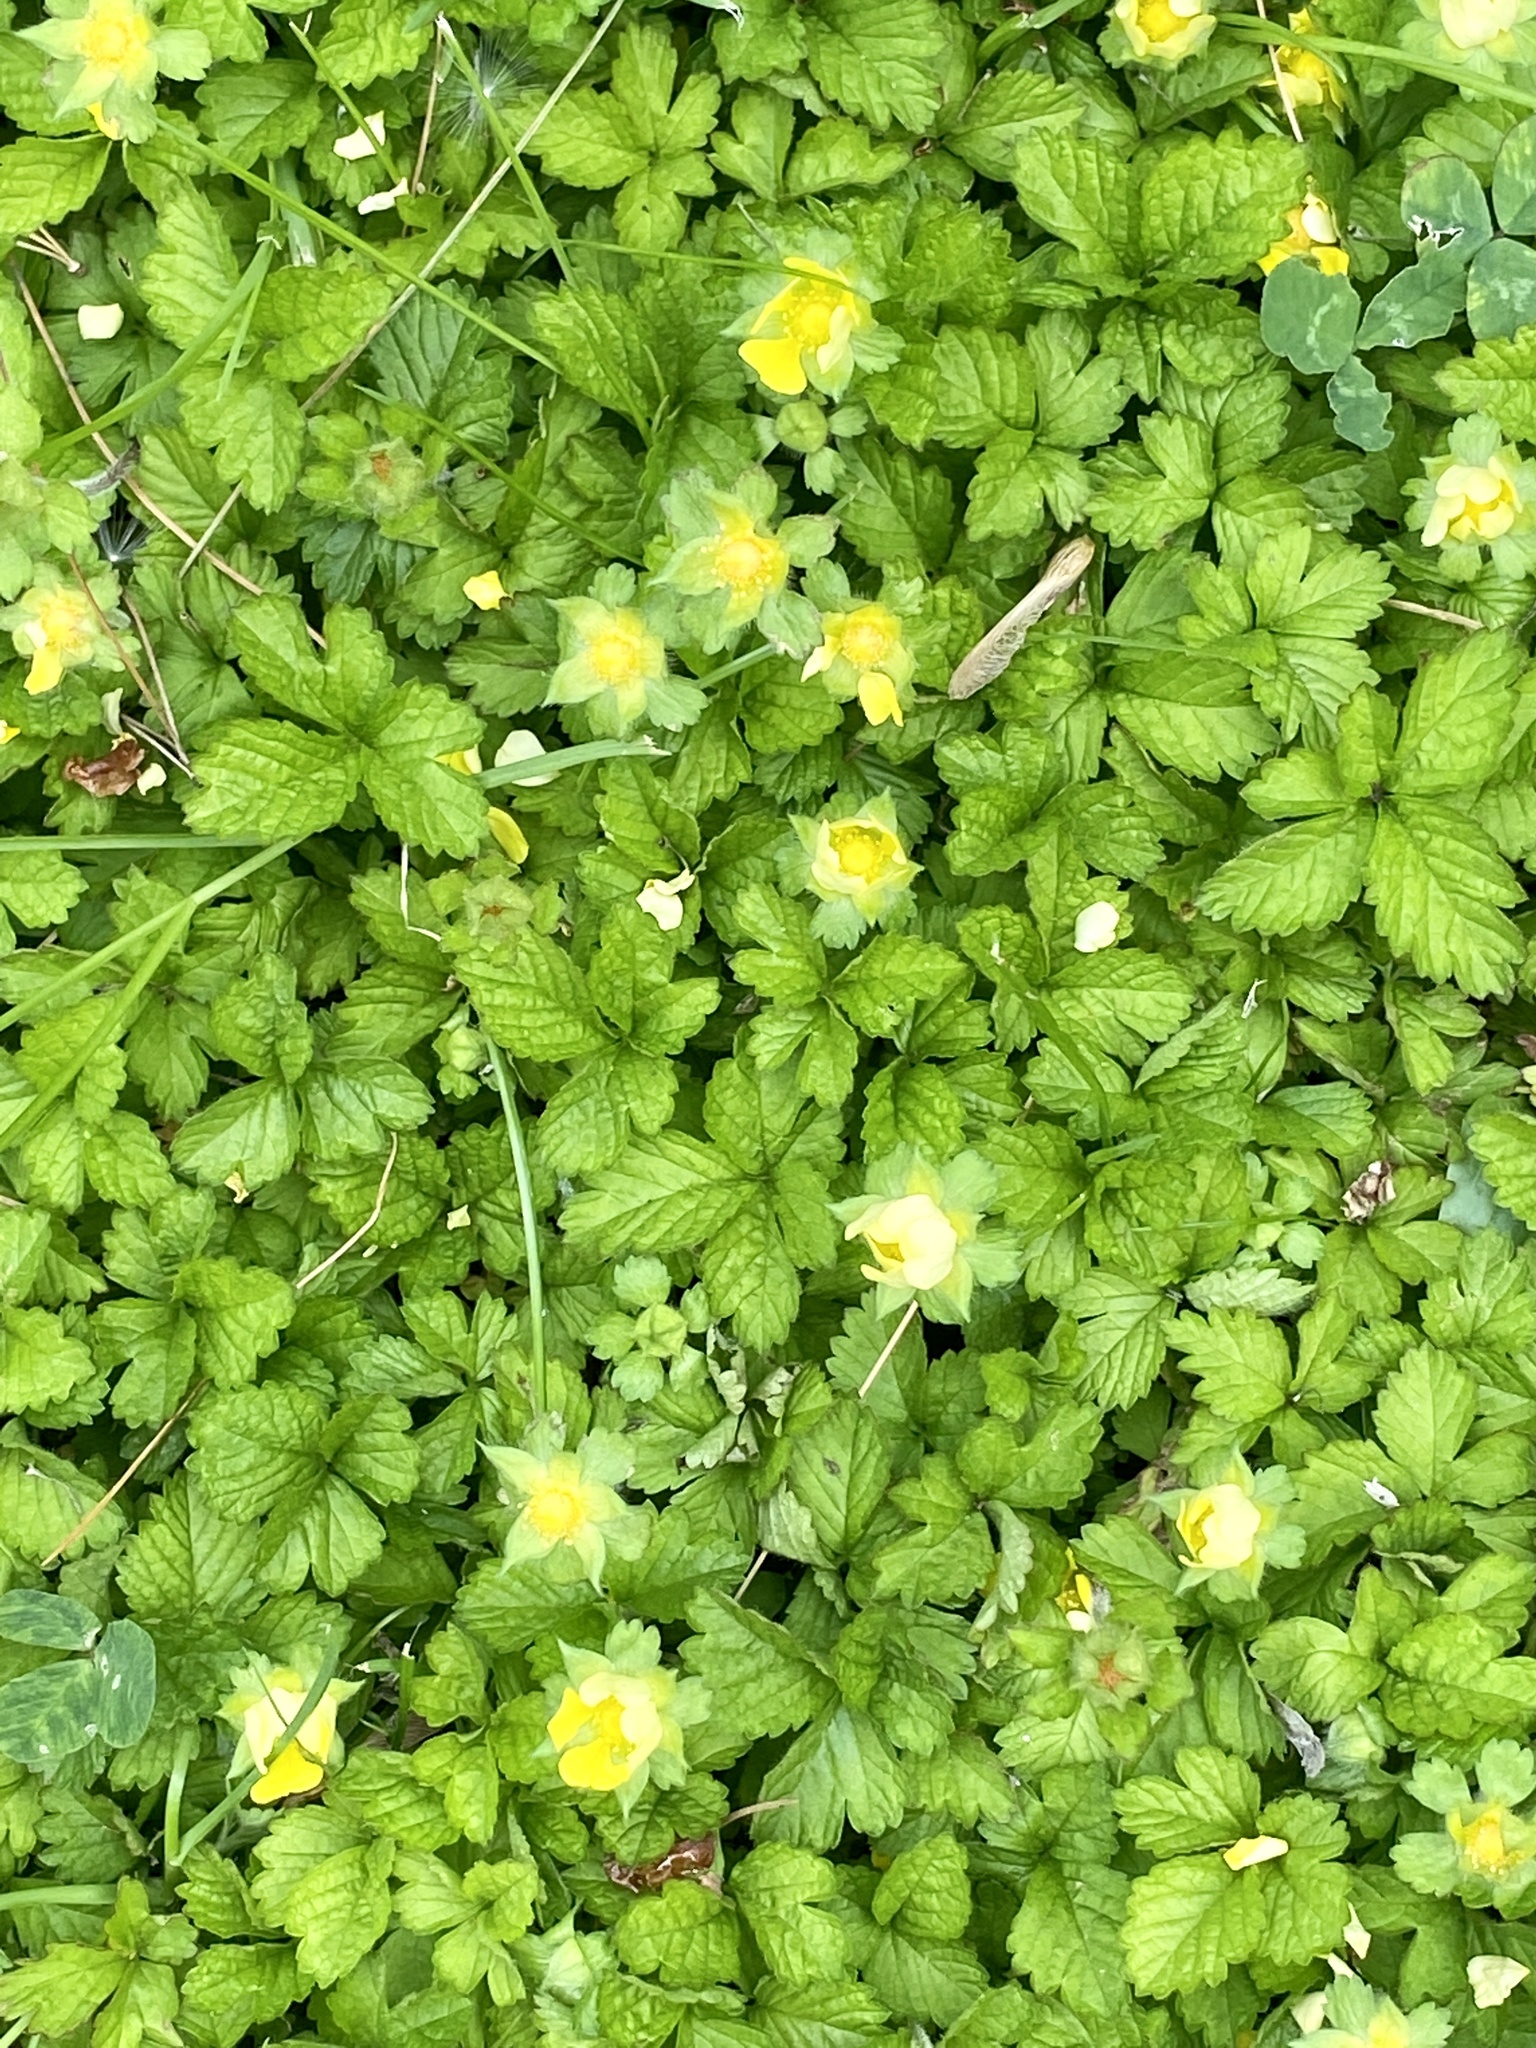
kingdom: Plantae
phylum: Tracheophyta
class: Magnoliopsida
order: Rosales
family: Rosaceae
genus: Potentilla
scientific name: Potentilla indica
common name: Yellow-flowered strawberry
